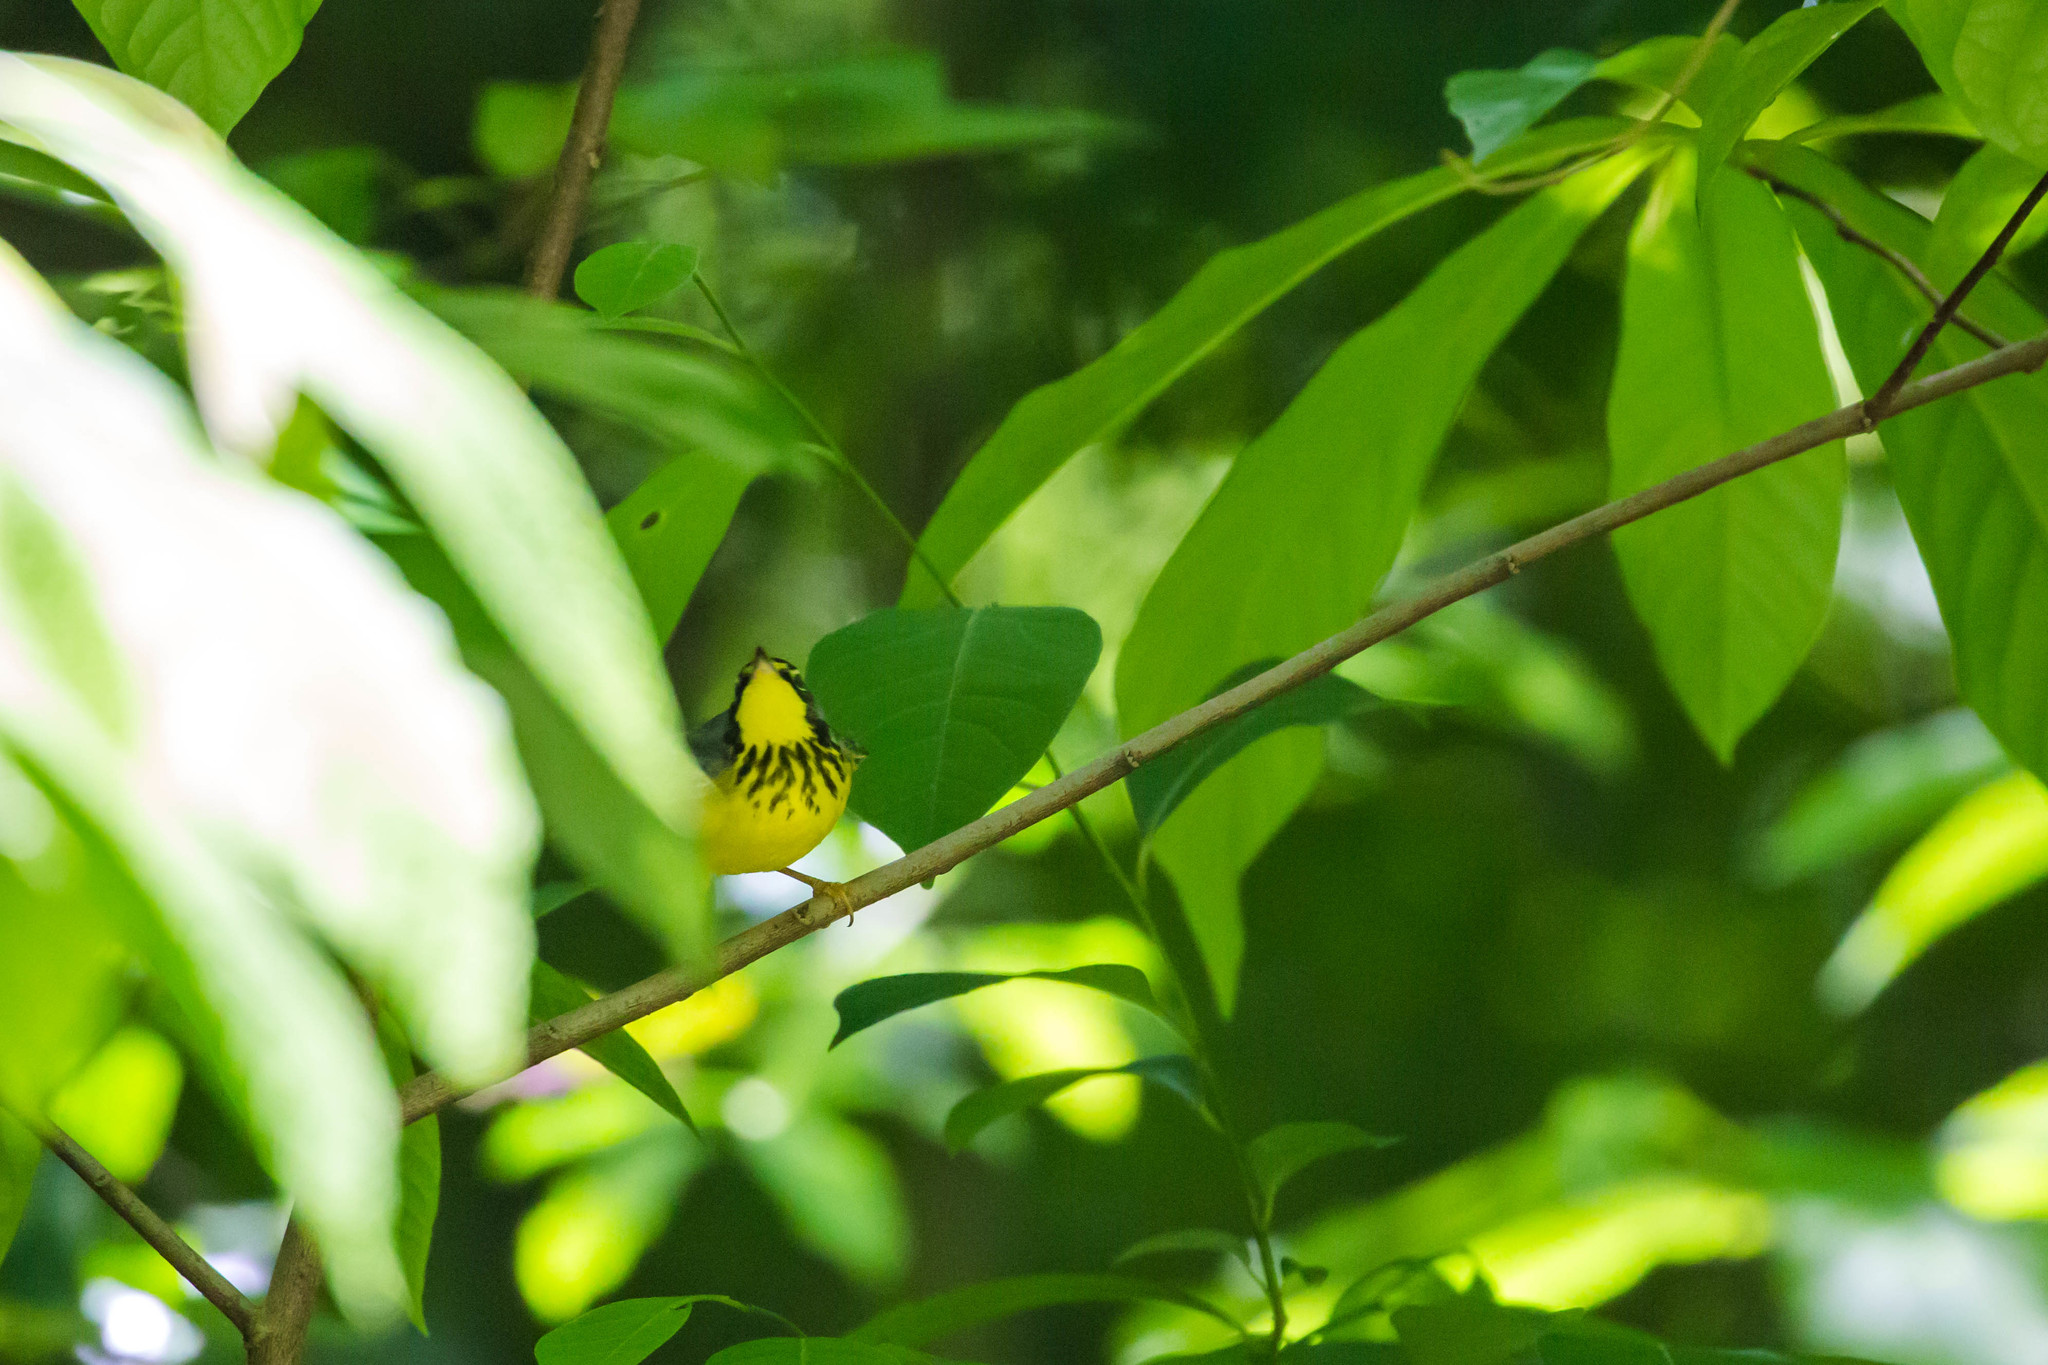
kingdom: Animalia
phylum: Chordata
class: Aves
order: Passeriformes
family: Parulidae
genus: Cardellina
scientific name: Cardellina canadensis
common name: Canada warbler
